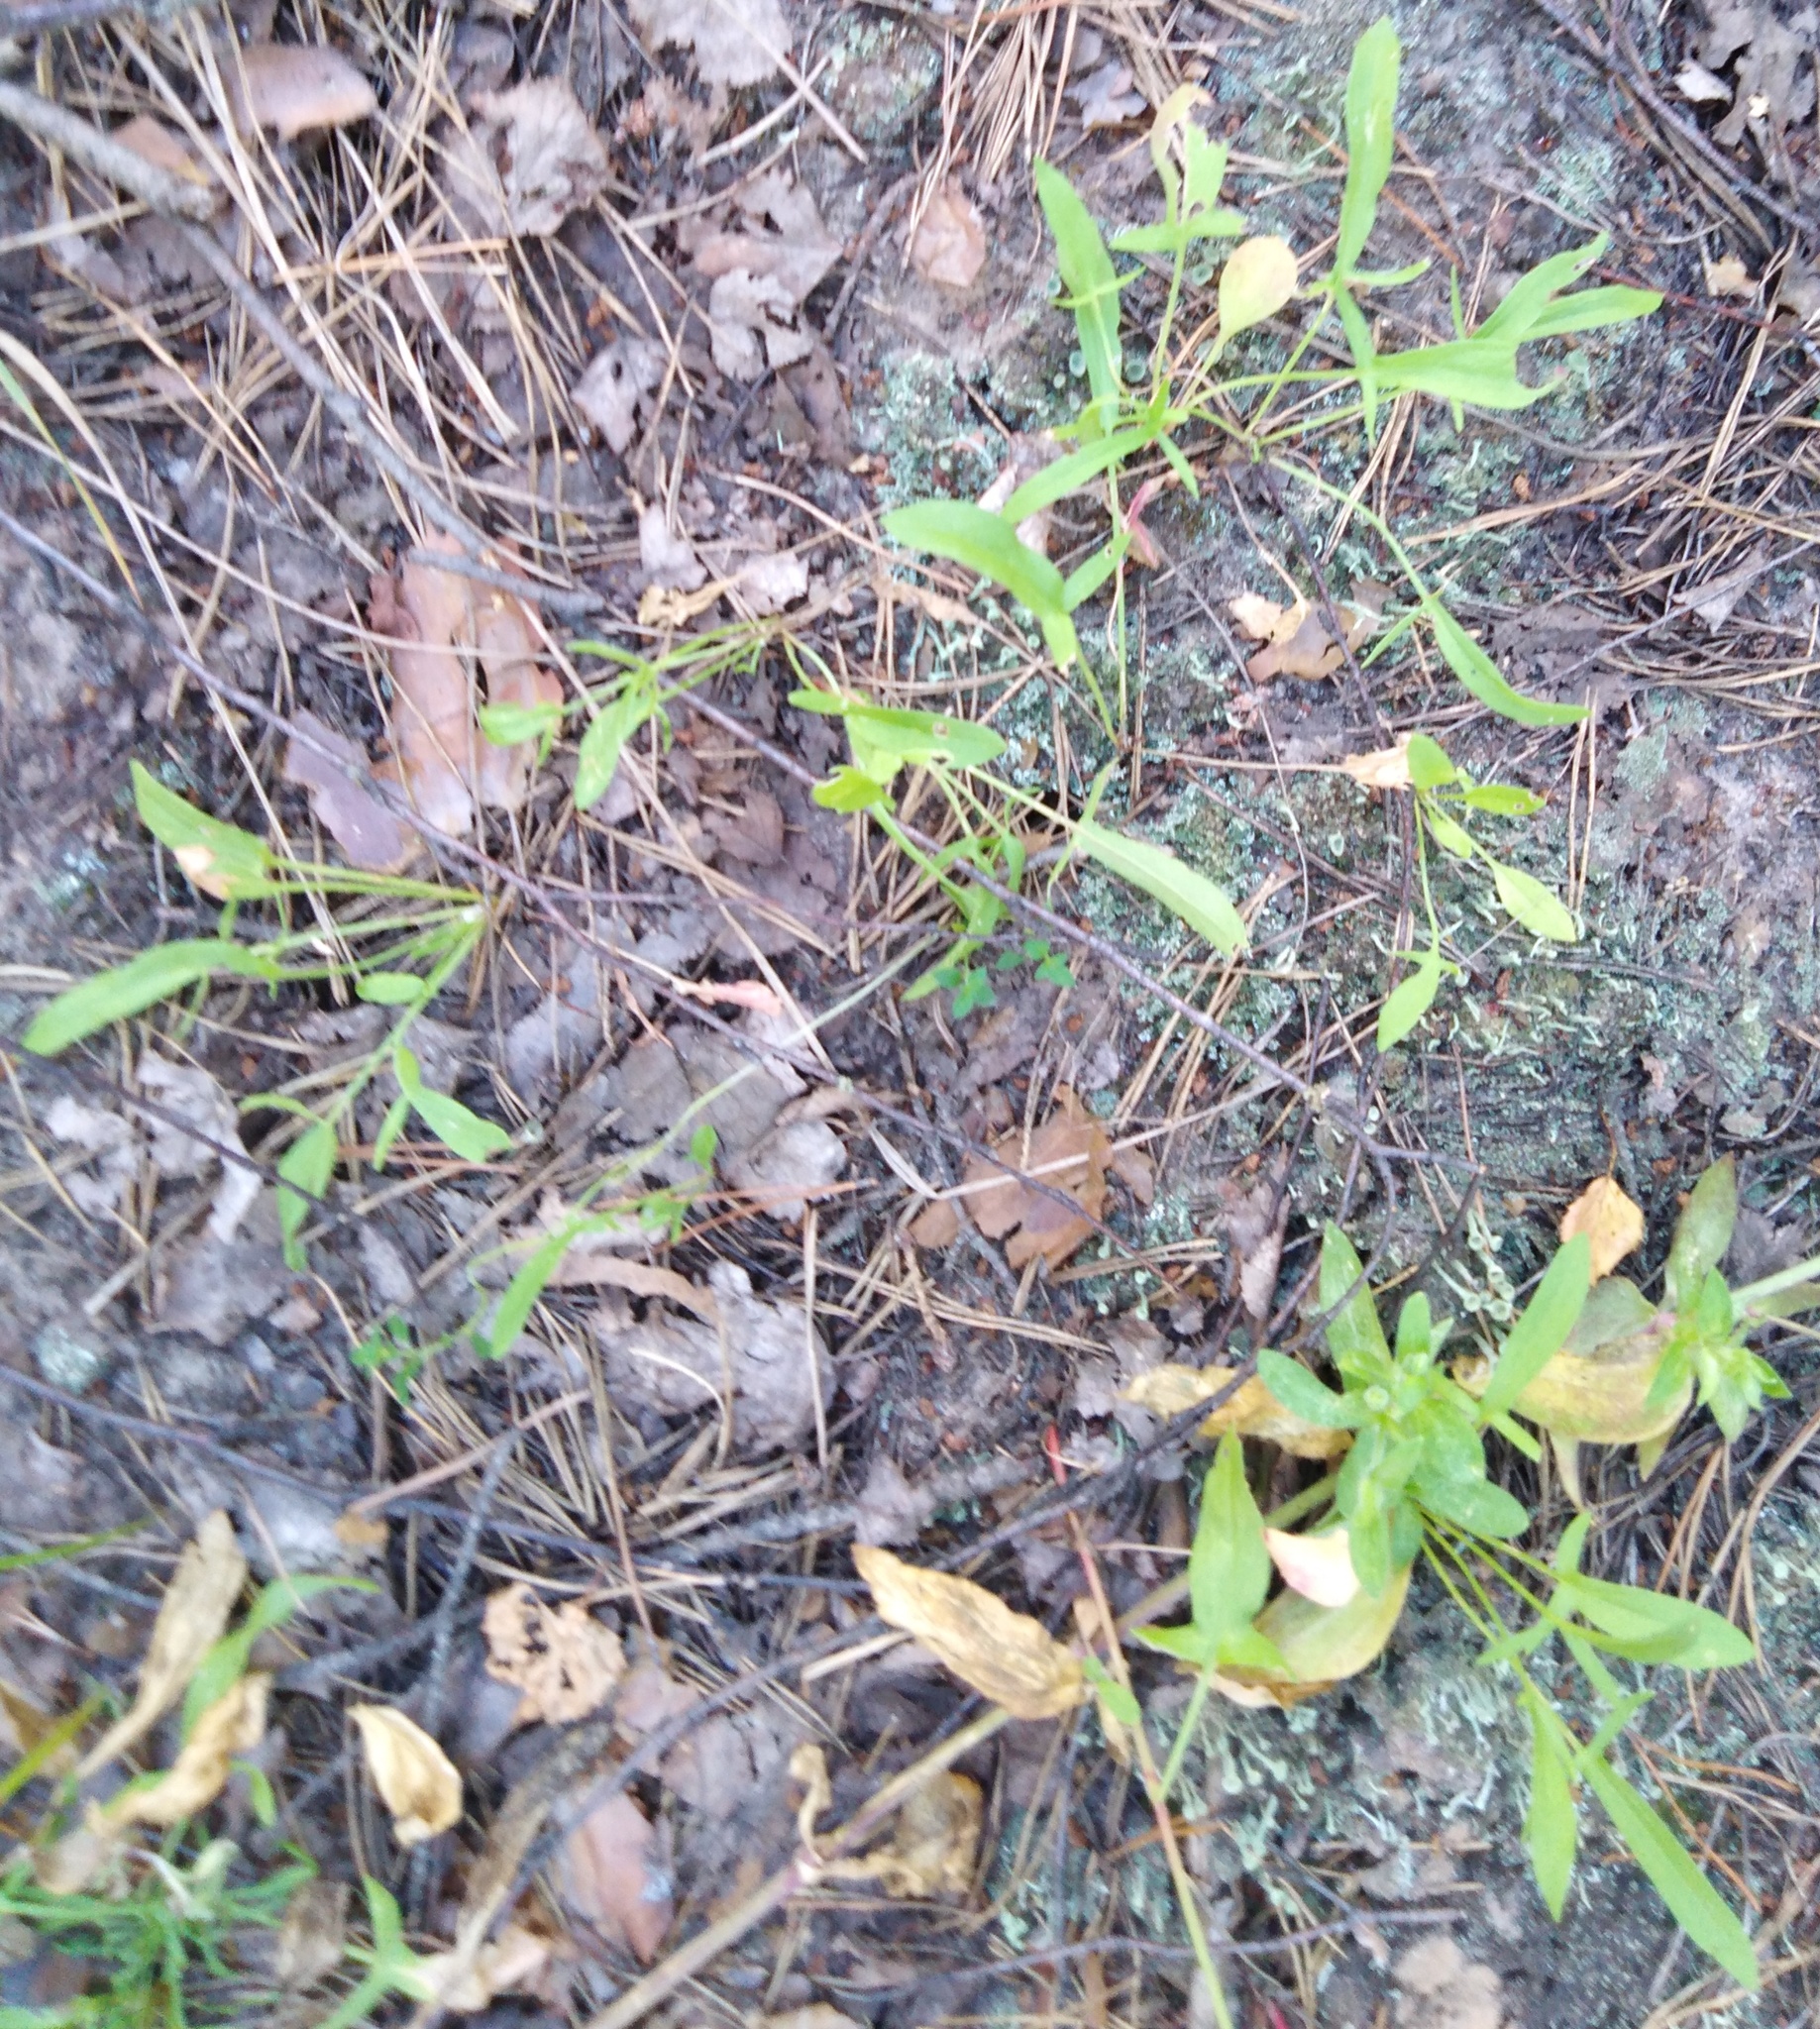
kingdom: Plantae
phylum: Tracheophyta
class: Magnoliopsida
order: Caryophyllales
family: Polygonaceae
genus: Rumex
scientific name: Rumex acetosella
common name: Common sheep sorrel
